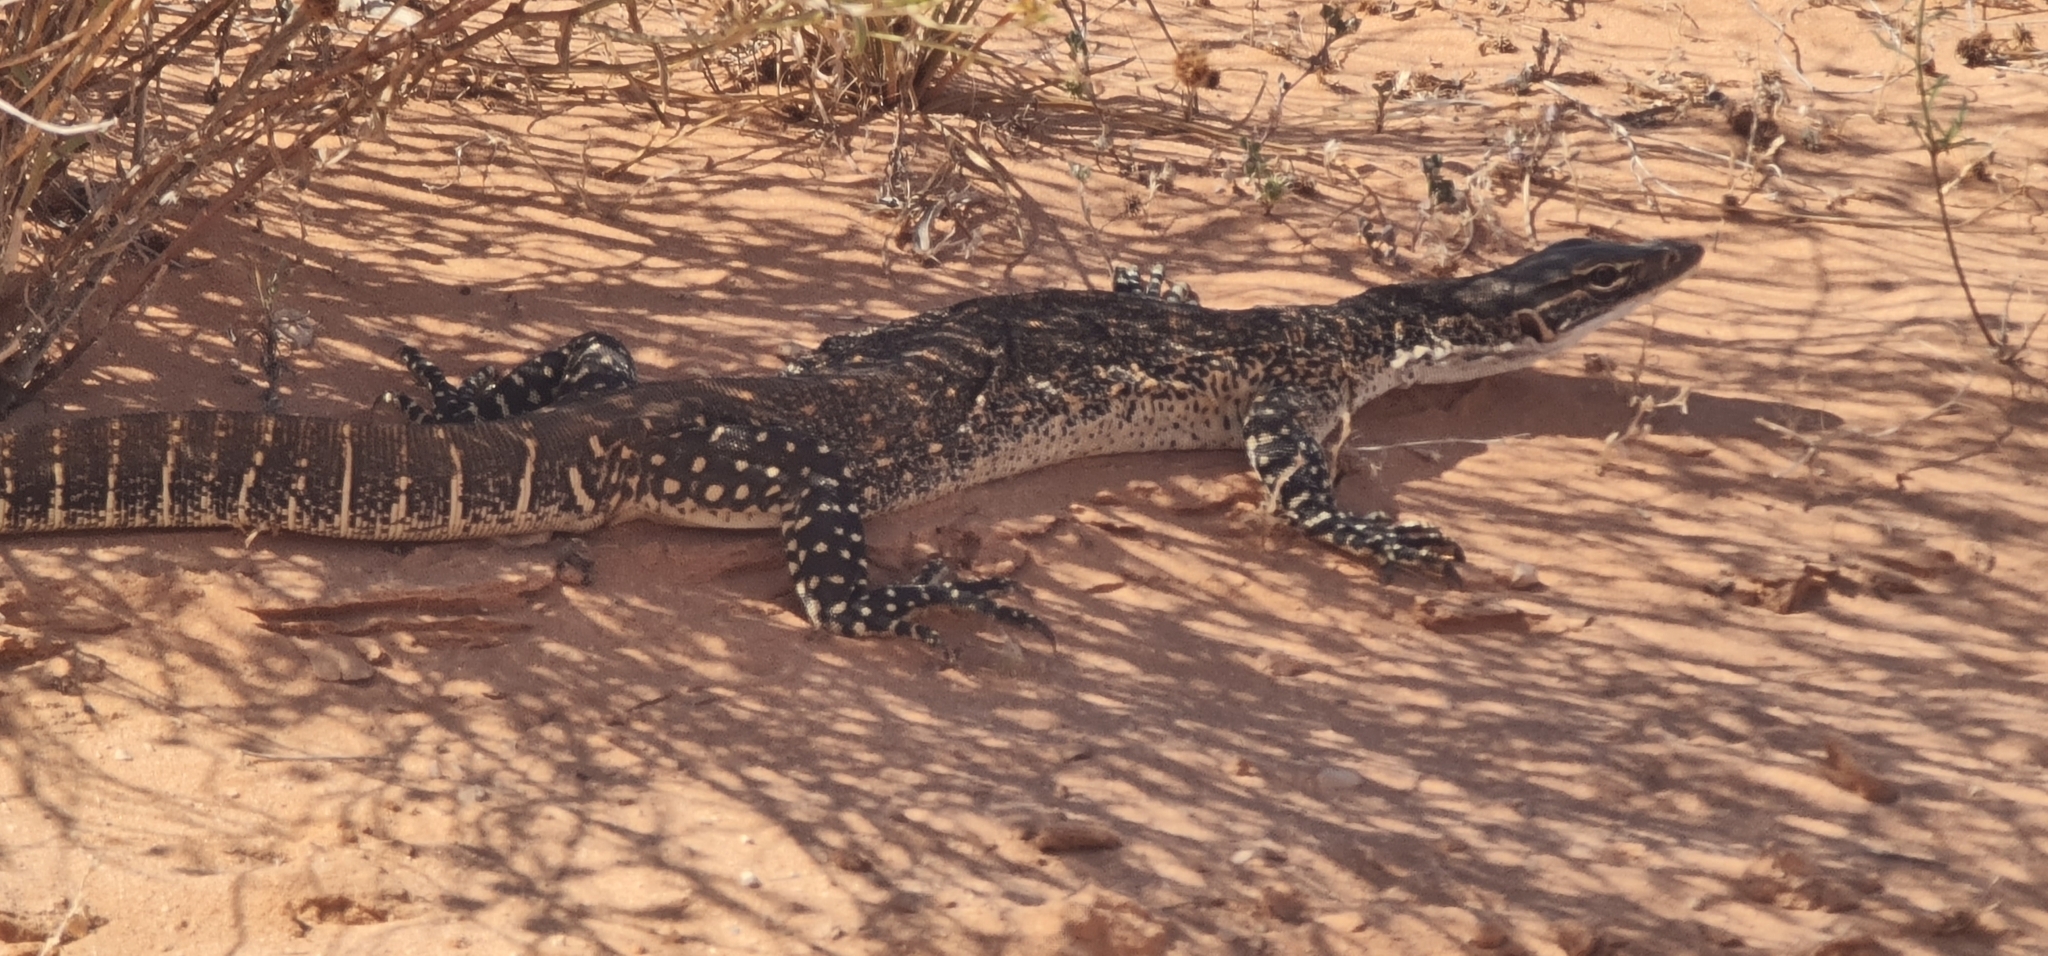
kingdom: Animalia
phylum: Chordata
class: Squamata
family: Varanidae
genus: Varanus
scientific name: Varanus gouldii
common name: Gould's goanna
